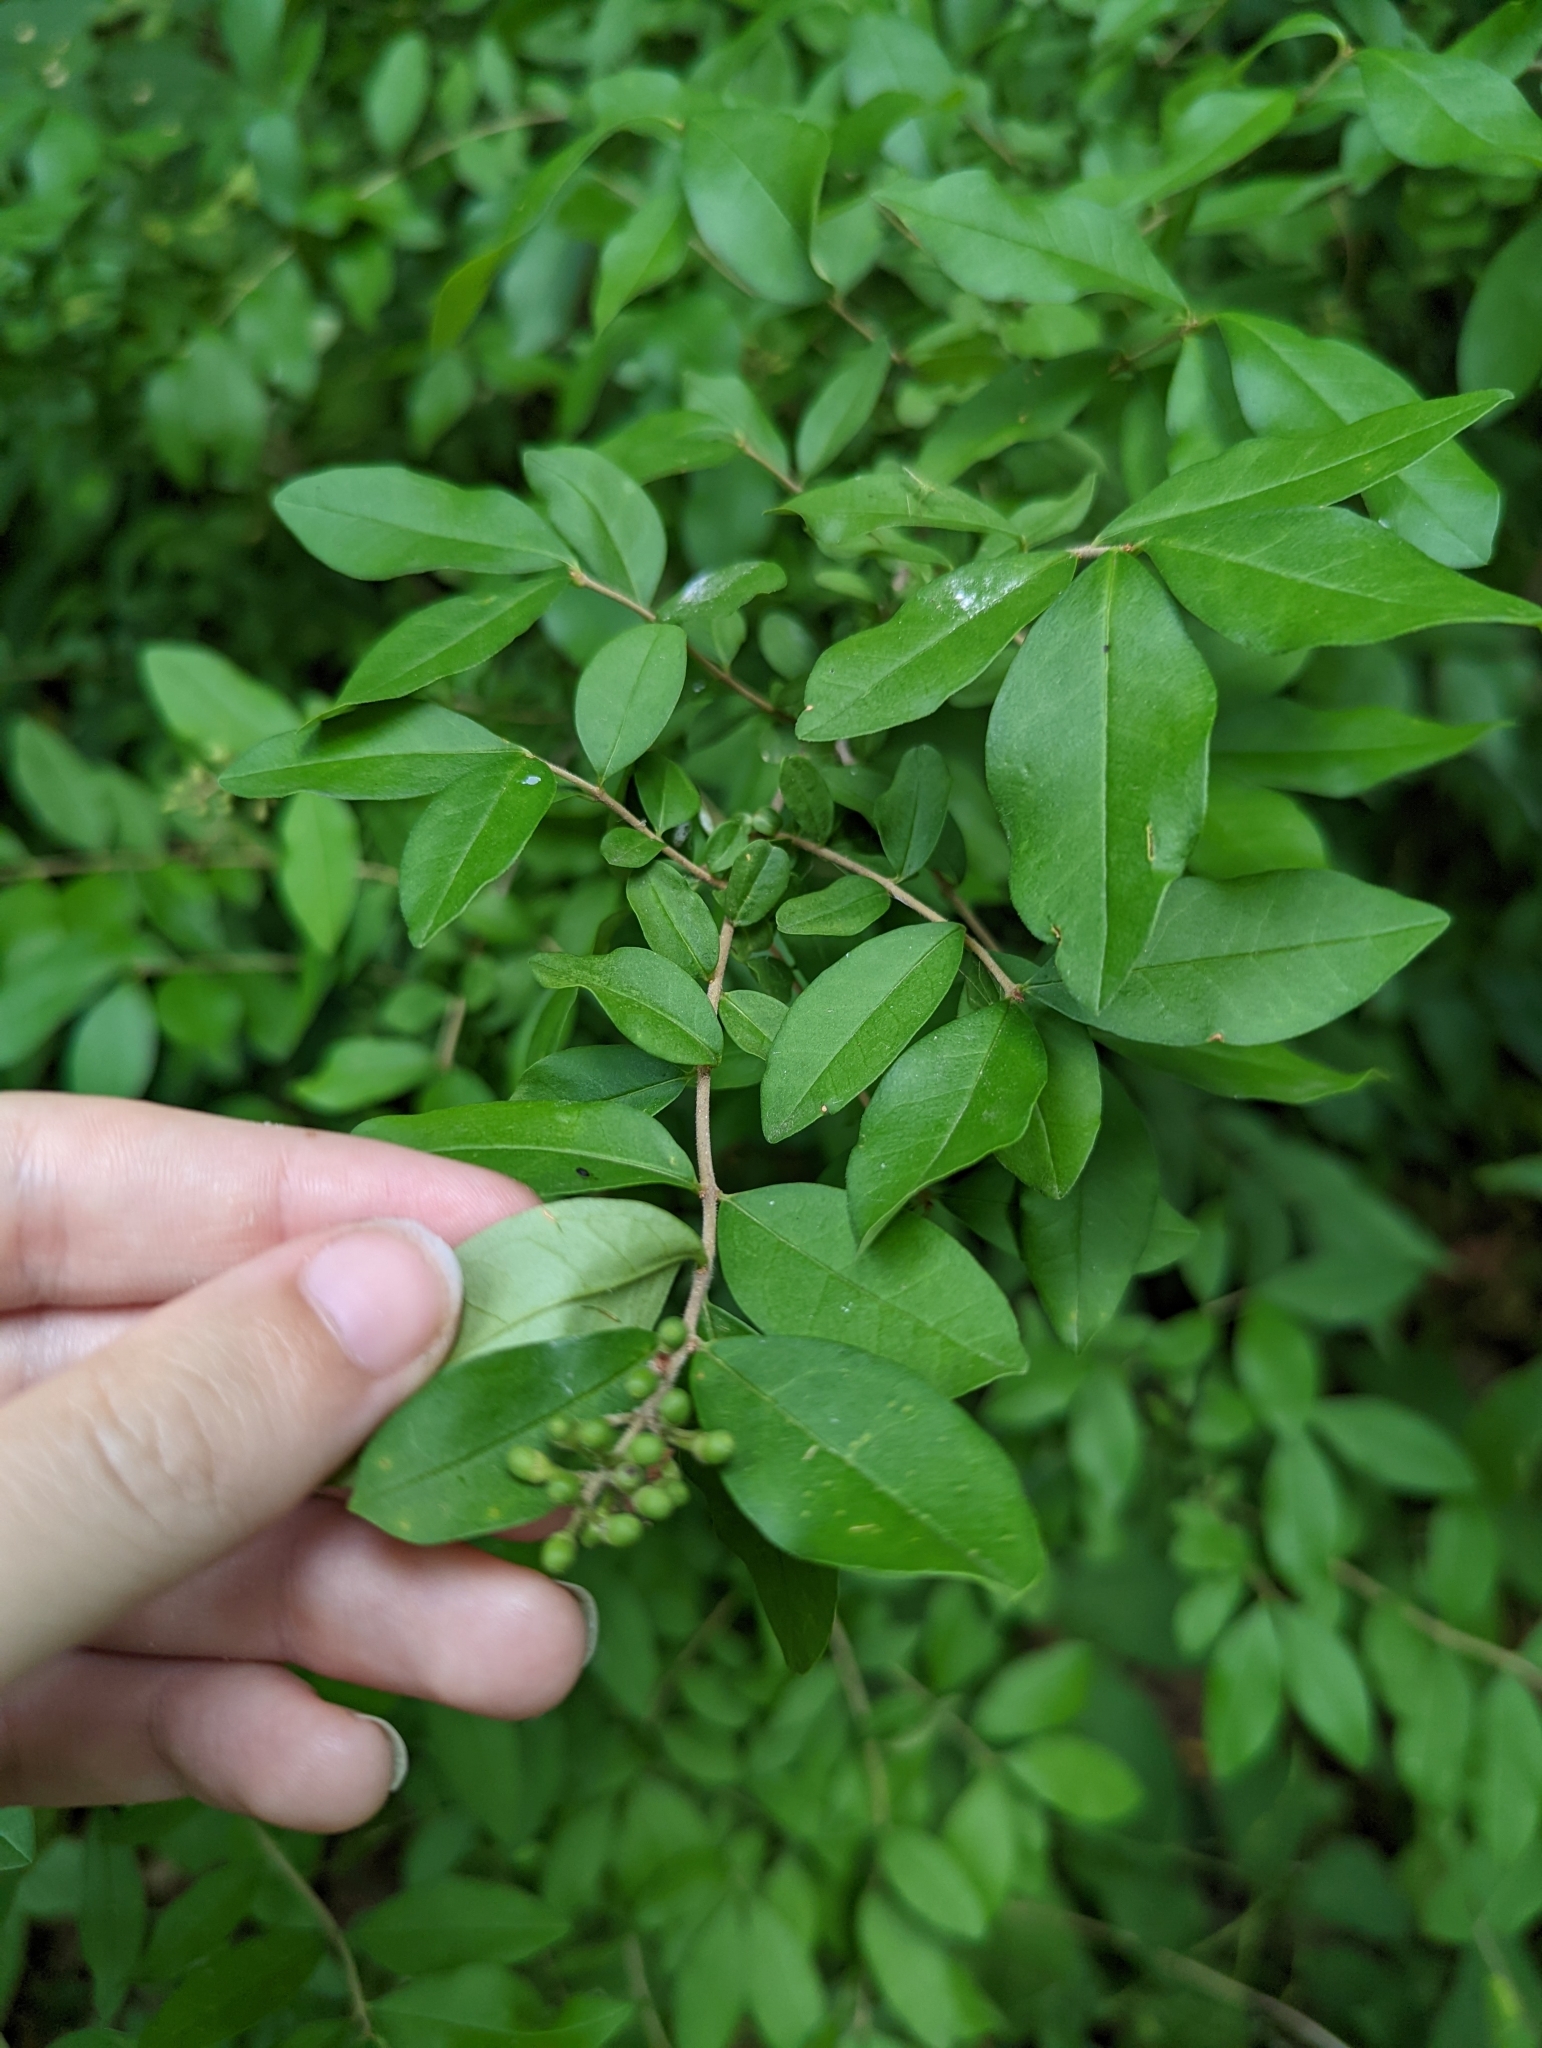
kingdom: Plantae
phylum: Tracheophyta
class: Magnoliopsida
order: Lamiales
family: Oleaceae
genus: Ligustrum
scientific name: Ligustrum obtusifolium
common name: Border privet
